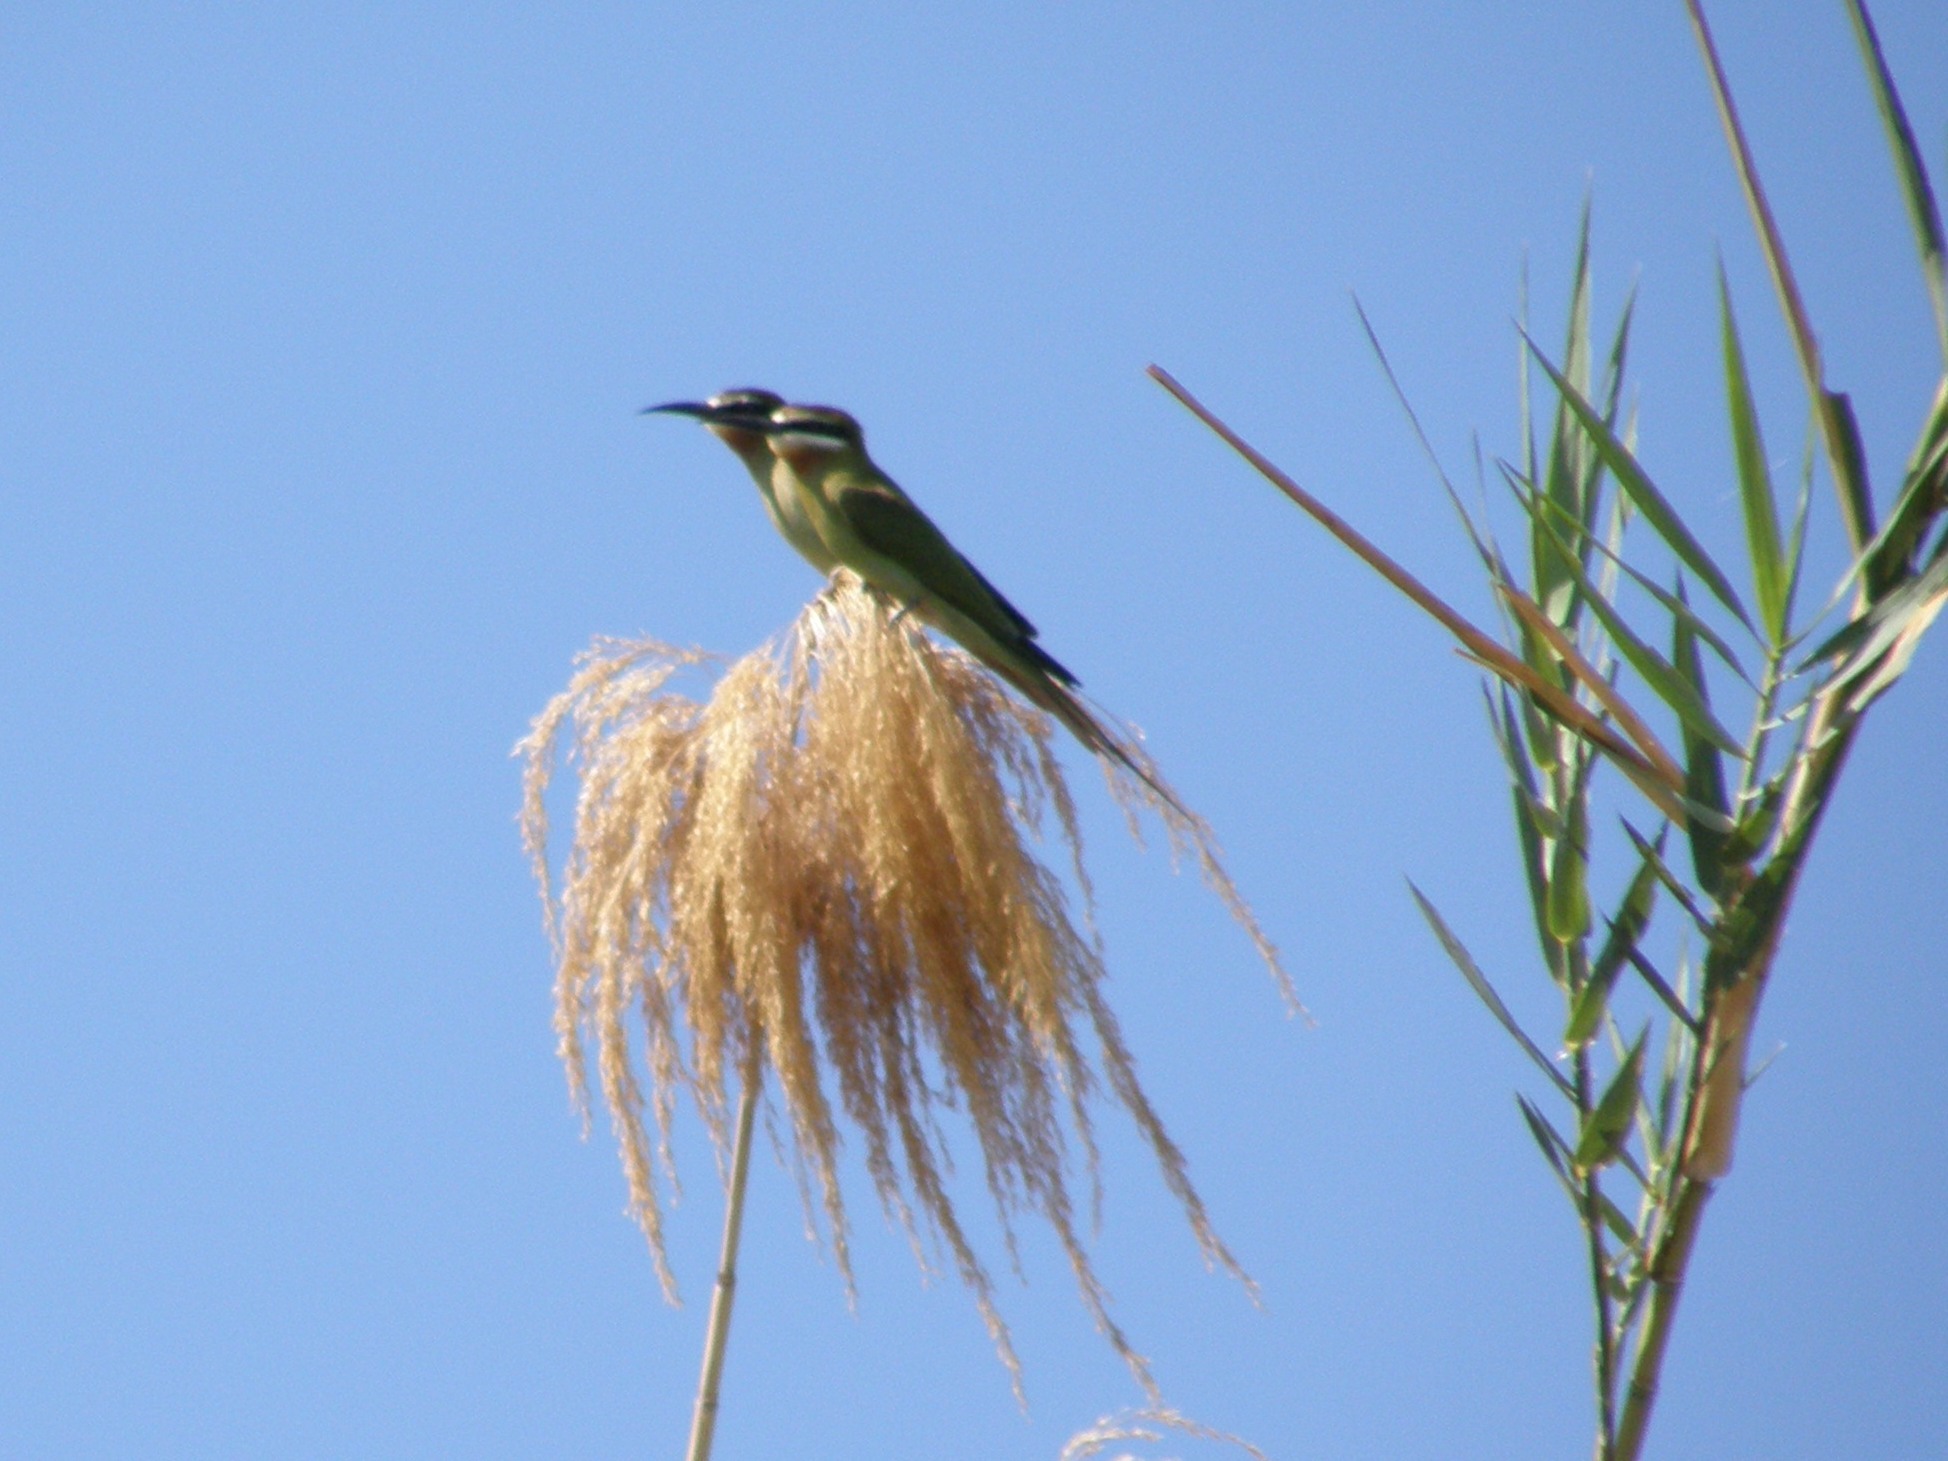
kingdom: Animalia
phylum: Chordata
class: Aves
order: Coraciiformes
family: Meropidae
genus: Merops
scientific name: Merops superciliosus
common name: Olive bee-eater
